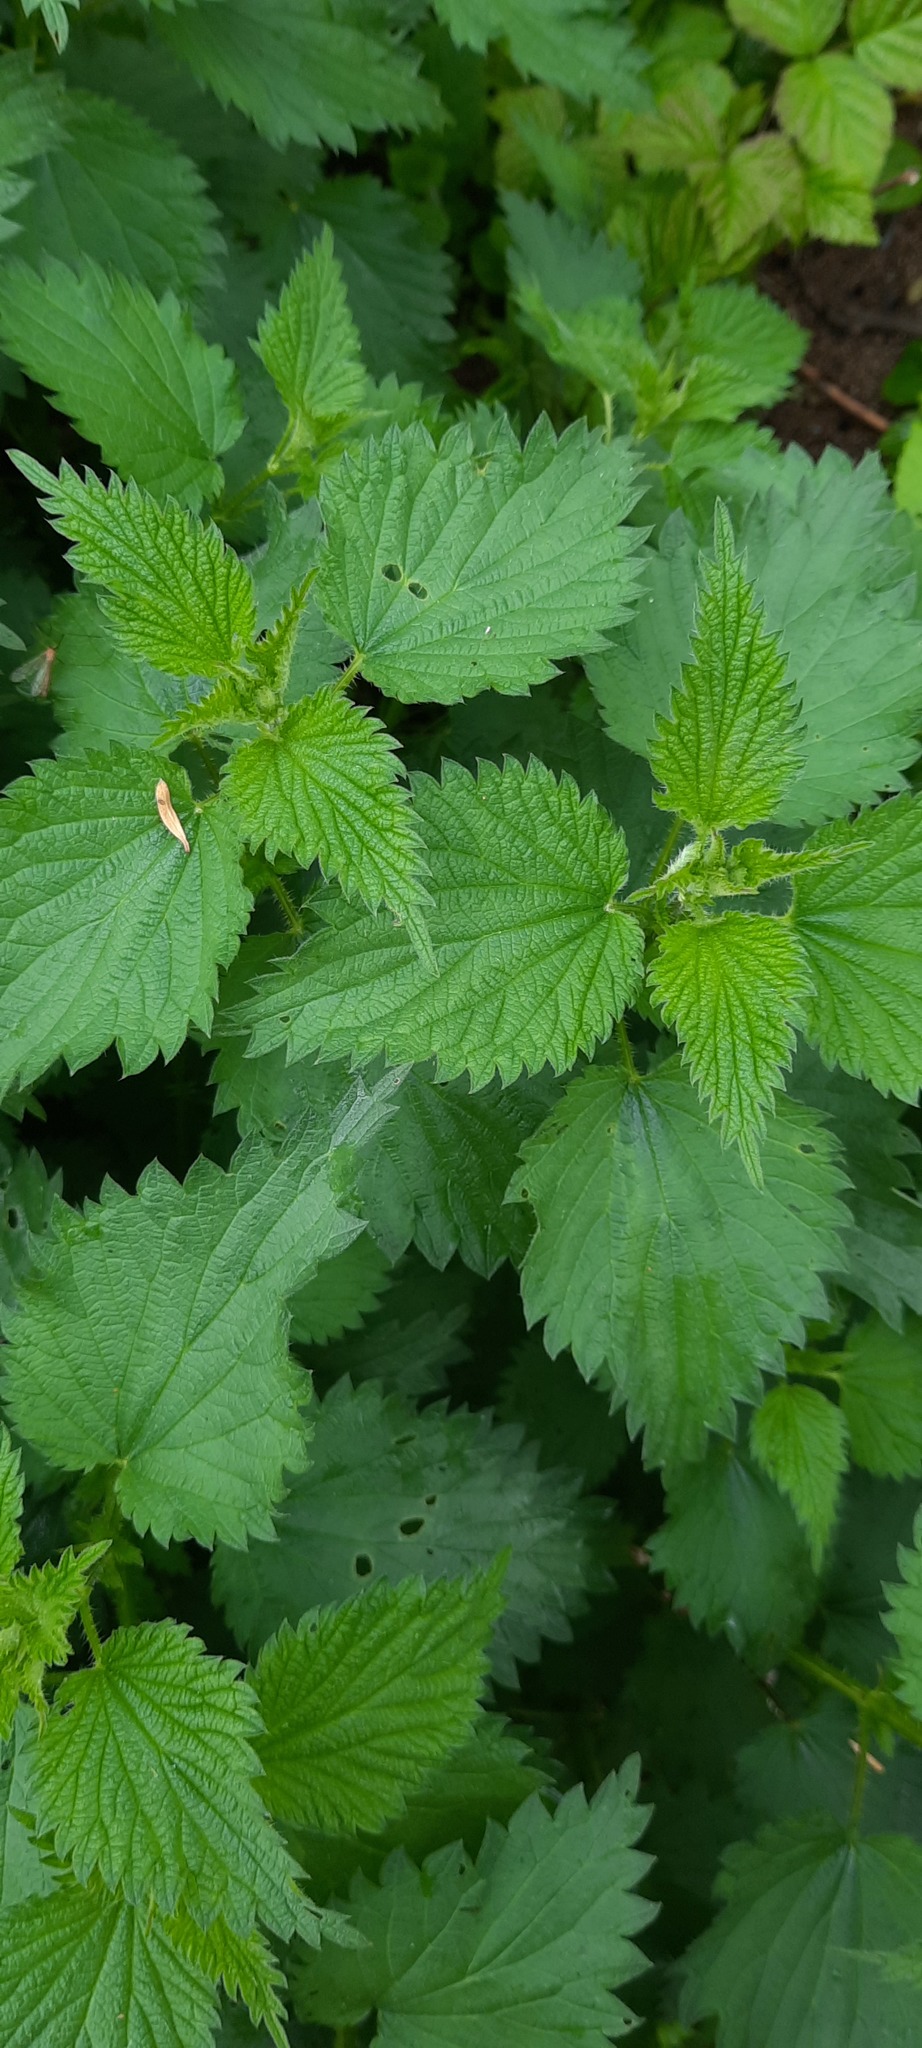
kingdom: Plantae
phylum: Tracheophyta
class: Magnoliopsida
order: Rosales
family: Urticaceae
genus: Urtica
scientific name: Urtica dioica
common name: Common nettle
